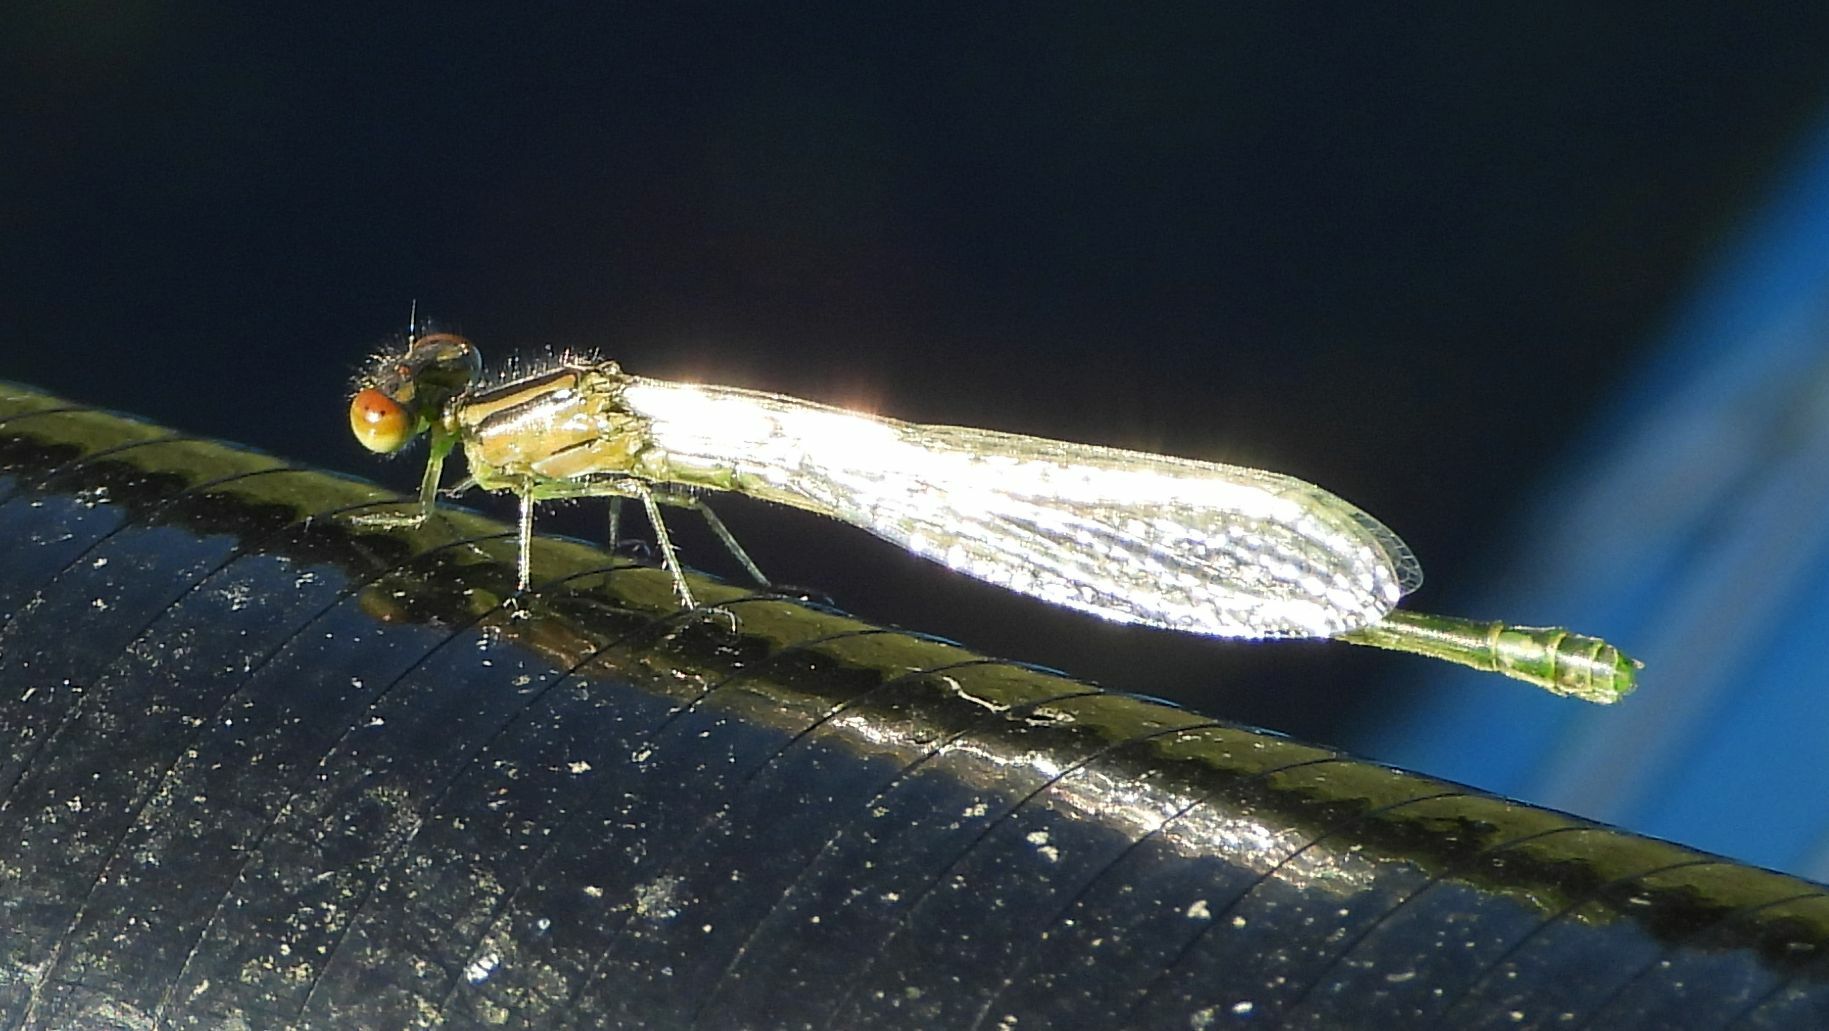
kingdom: Animalia
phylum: Arthropoda
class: Insecta
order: Odonata
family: Coenagrionidae
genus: Enallagma
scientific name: Enallagma geminatum
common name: Skimming bluet
